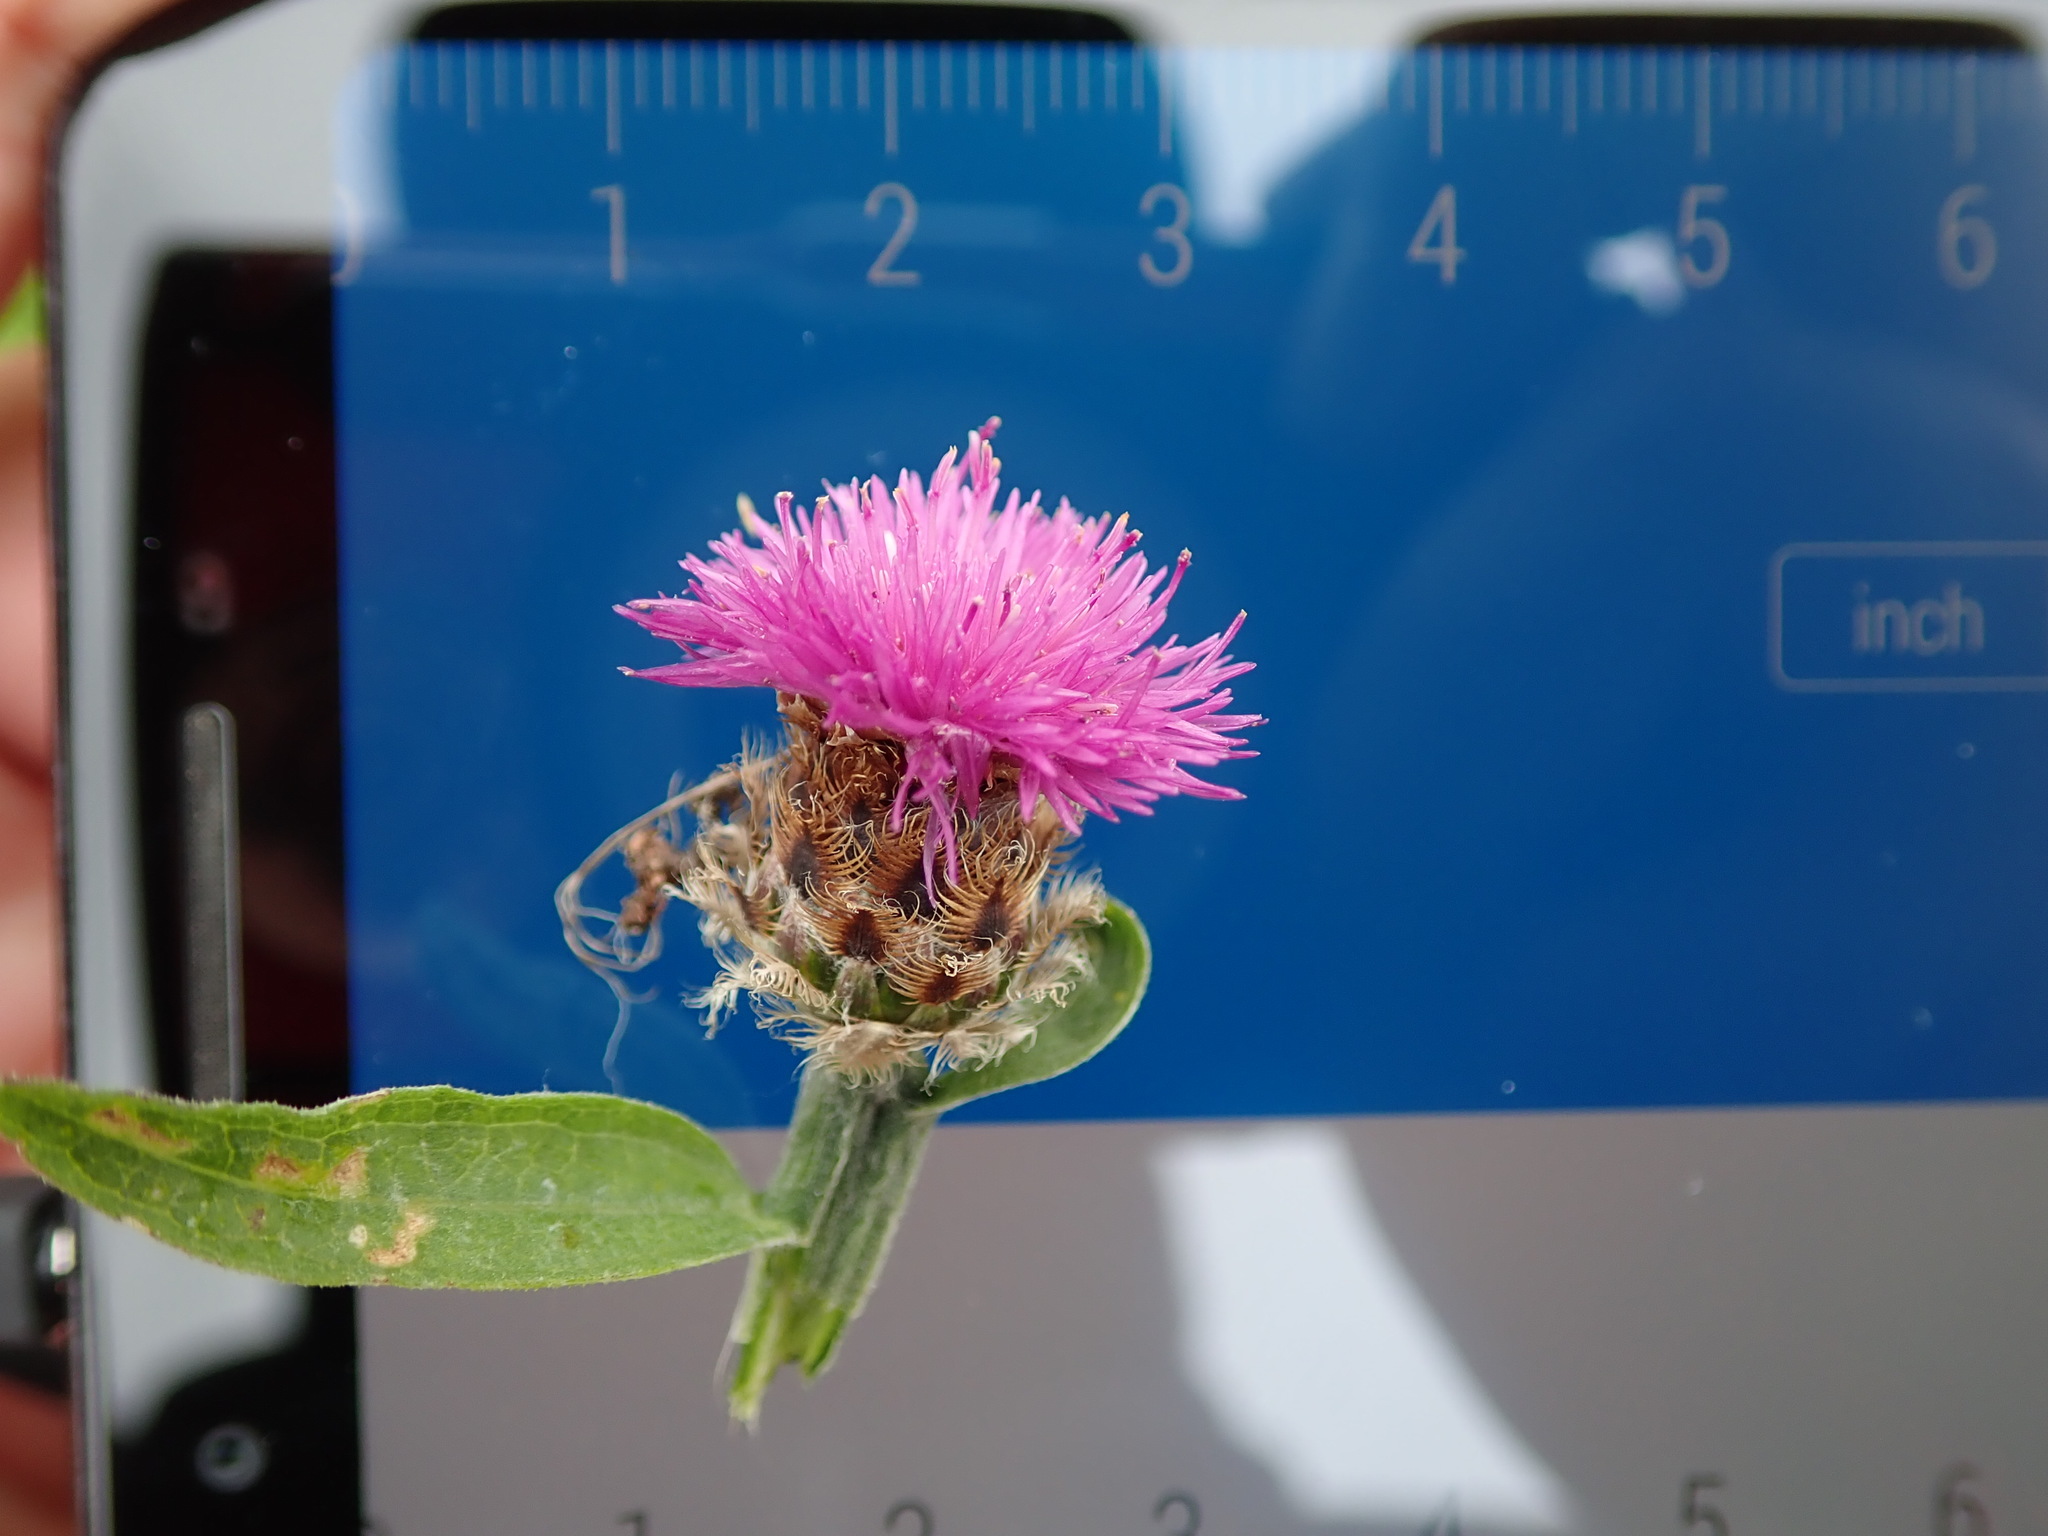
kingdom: Plantae
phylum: Tracheophyta
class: Magnoliopsida
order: Asterales
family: Asteraceae
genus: Centaurea
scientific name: Centaurea debeauxii
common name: Slender knapweed
